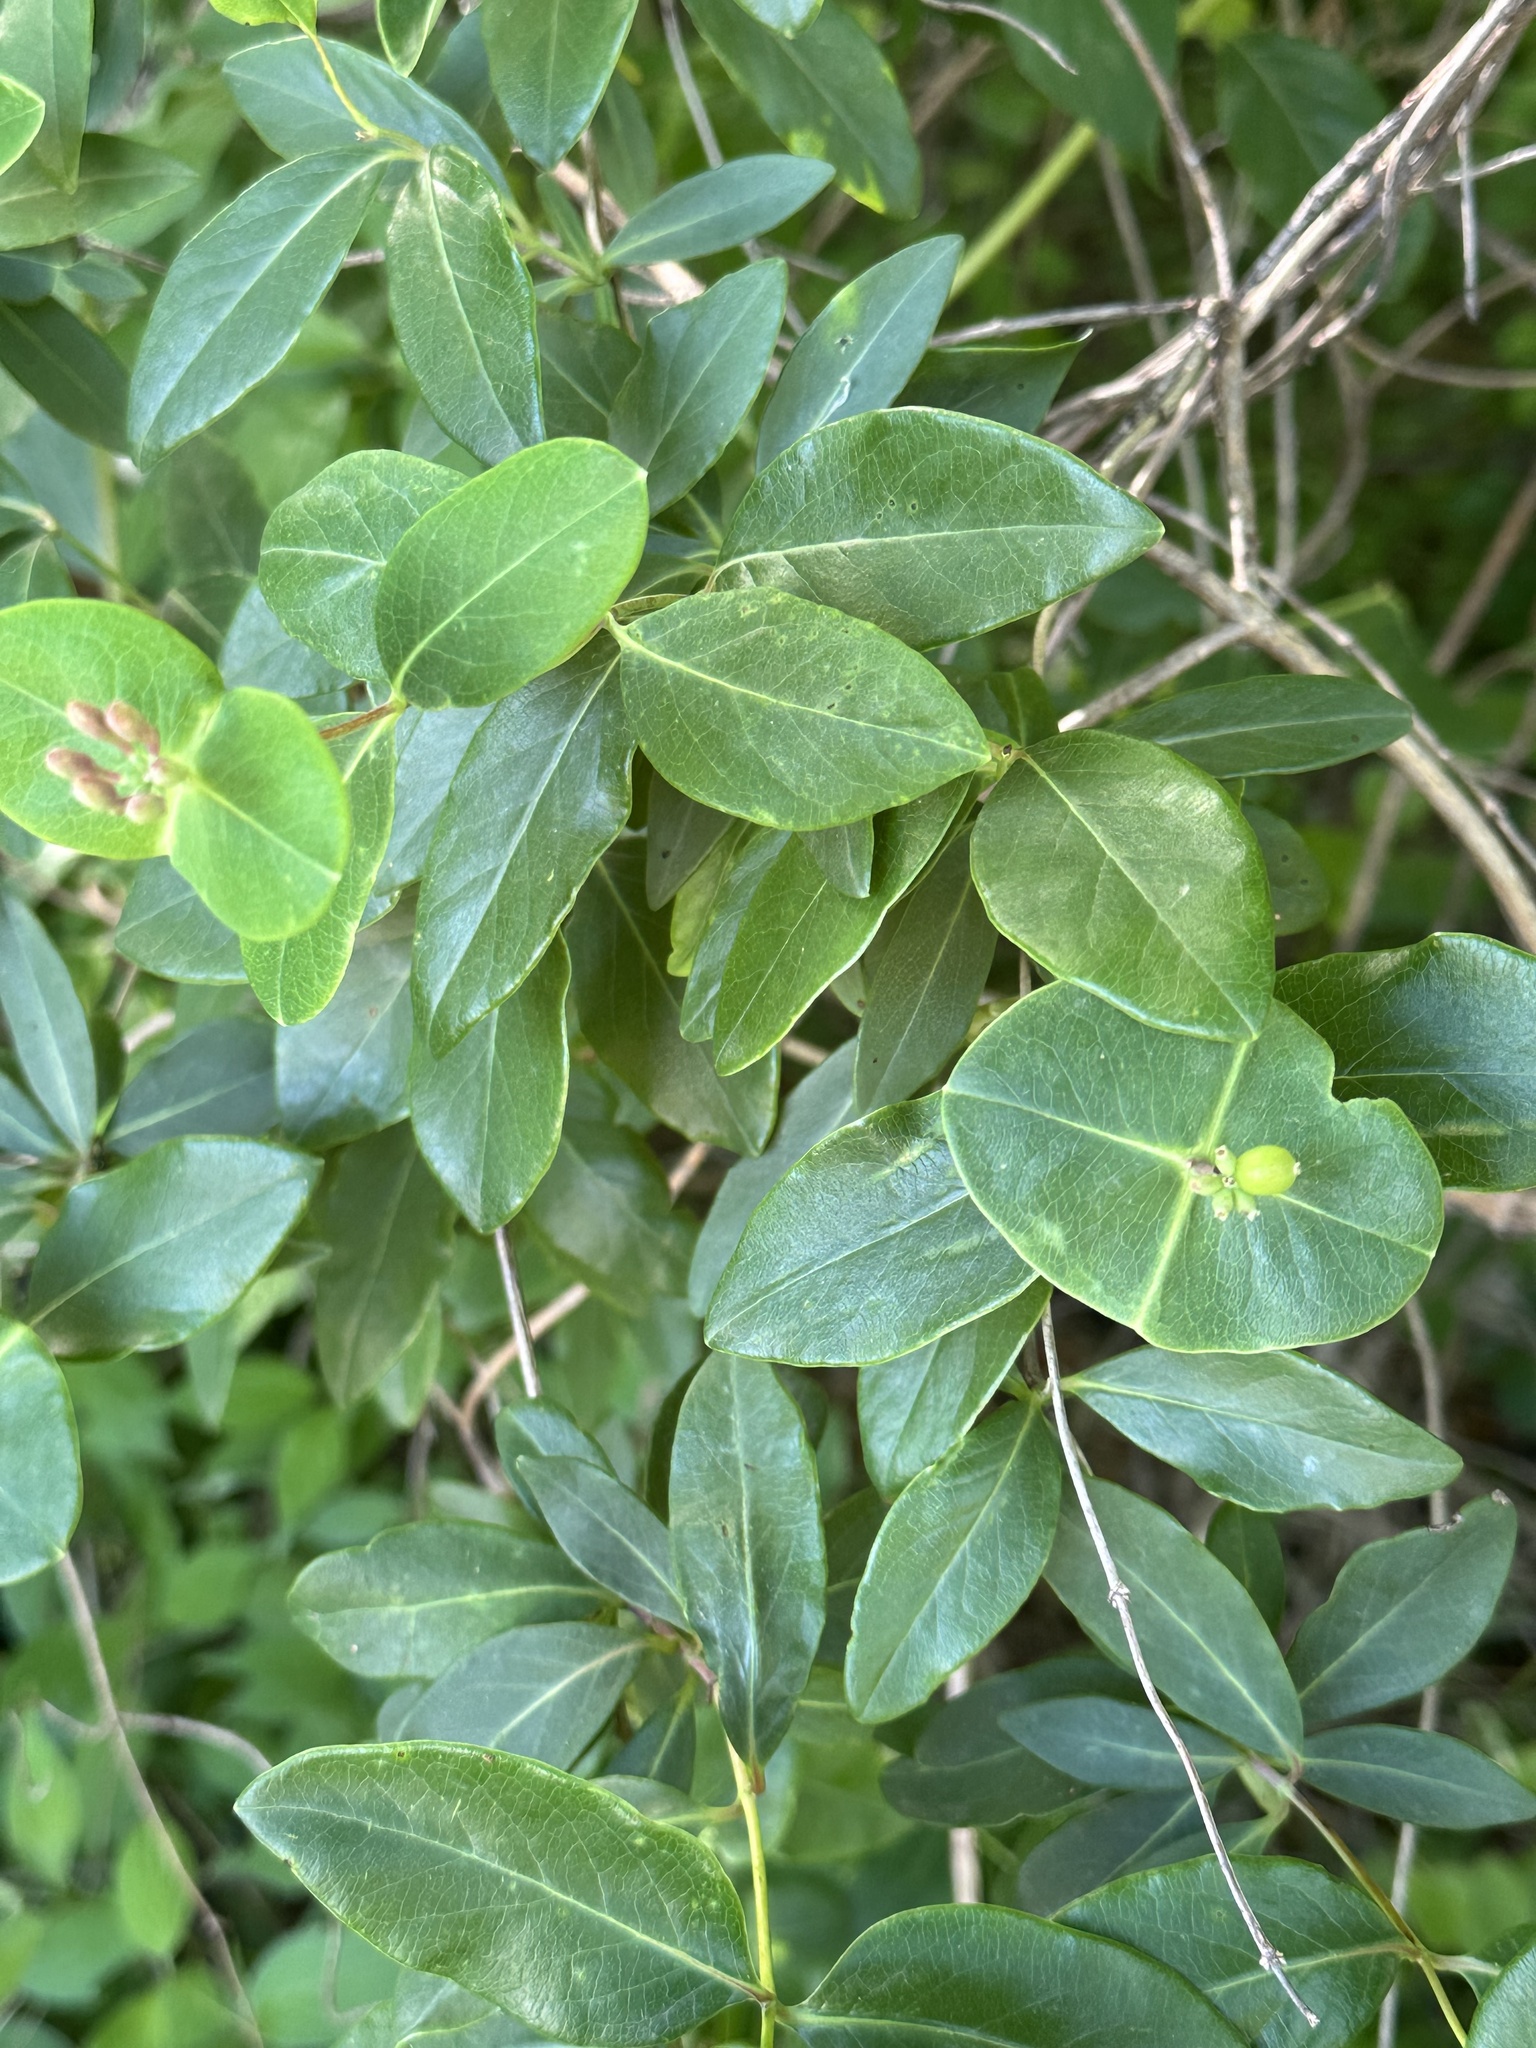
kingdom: Plantae
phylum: Tracheophyta
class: Magnoliopsida
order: Dipsacales
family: Caprifoliaceae
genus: Lonicera
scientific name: Lonicera sempervirens
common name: Coral honeysuckle
